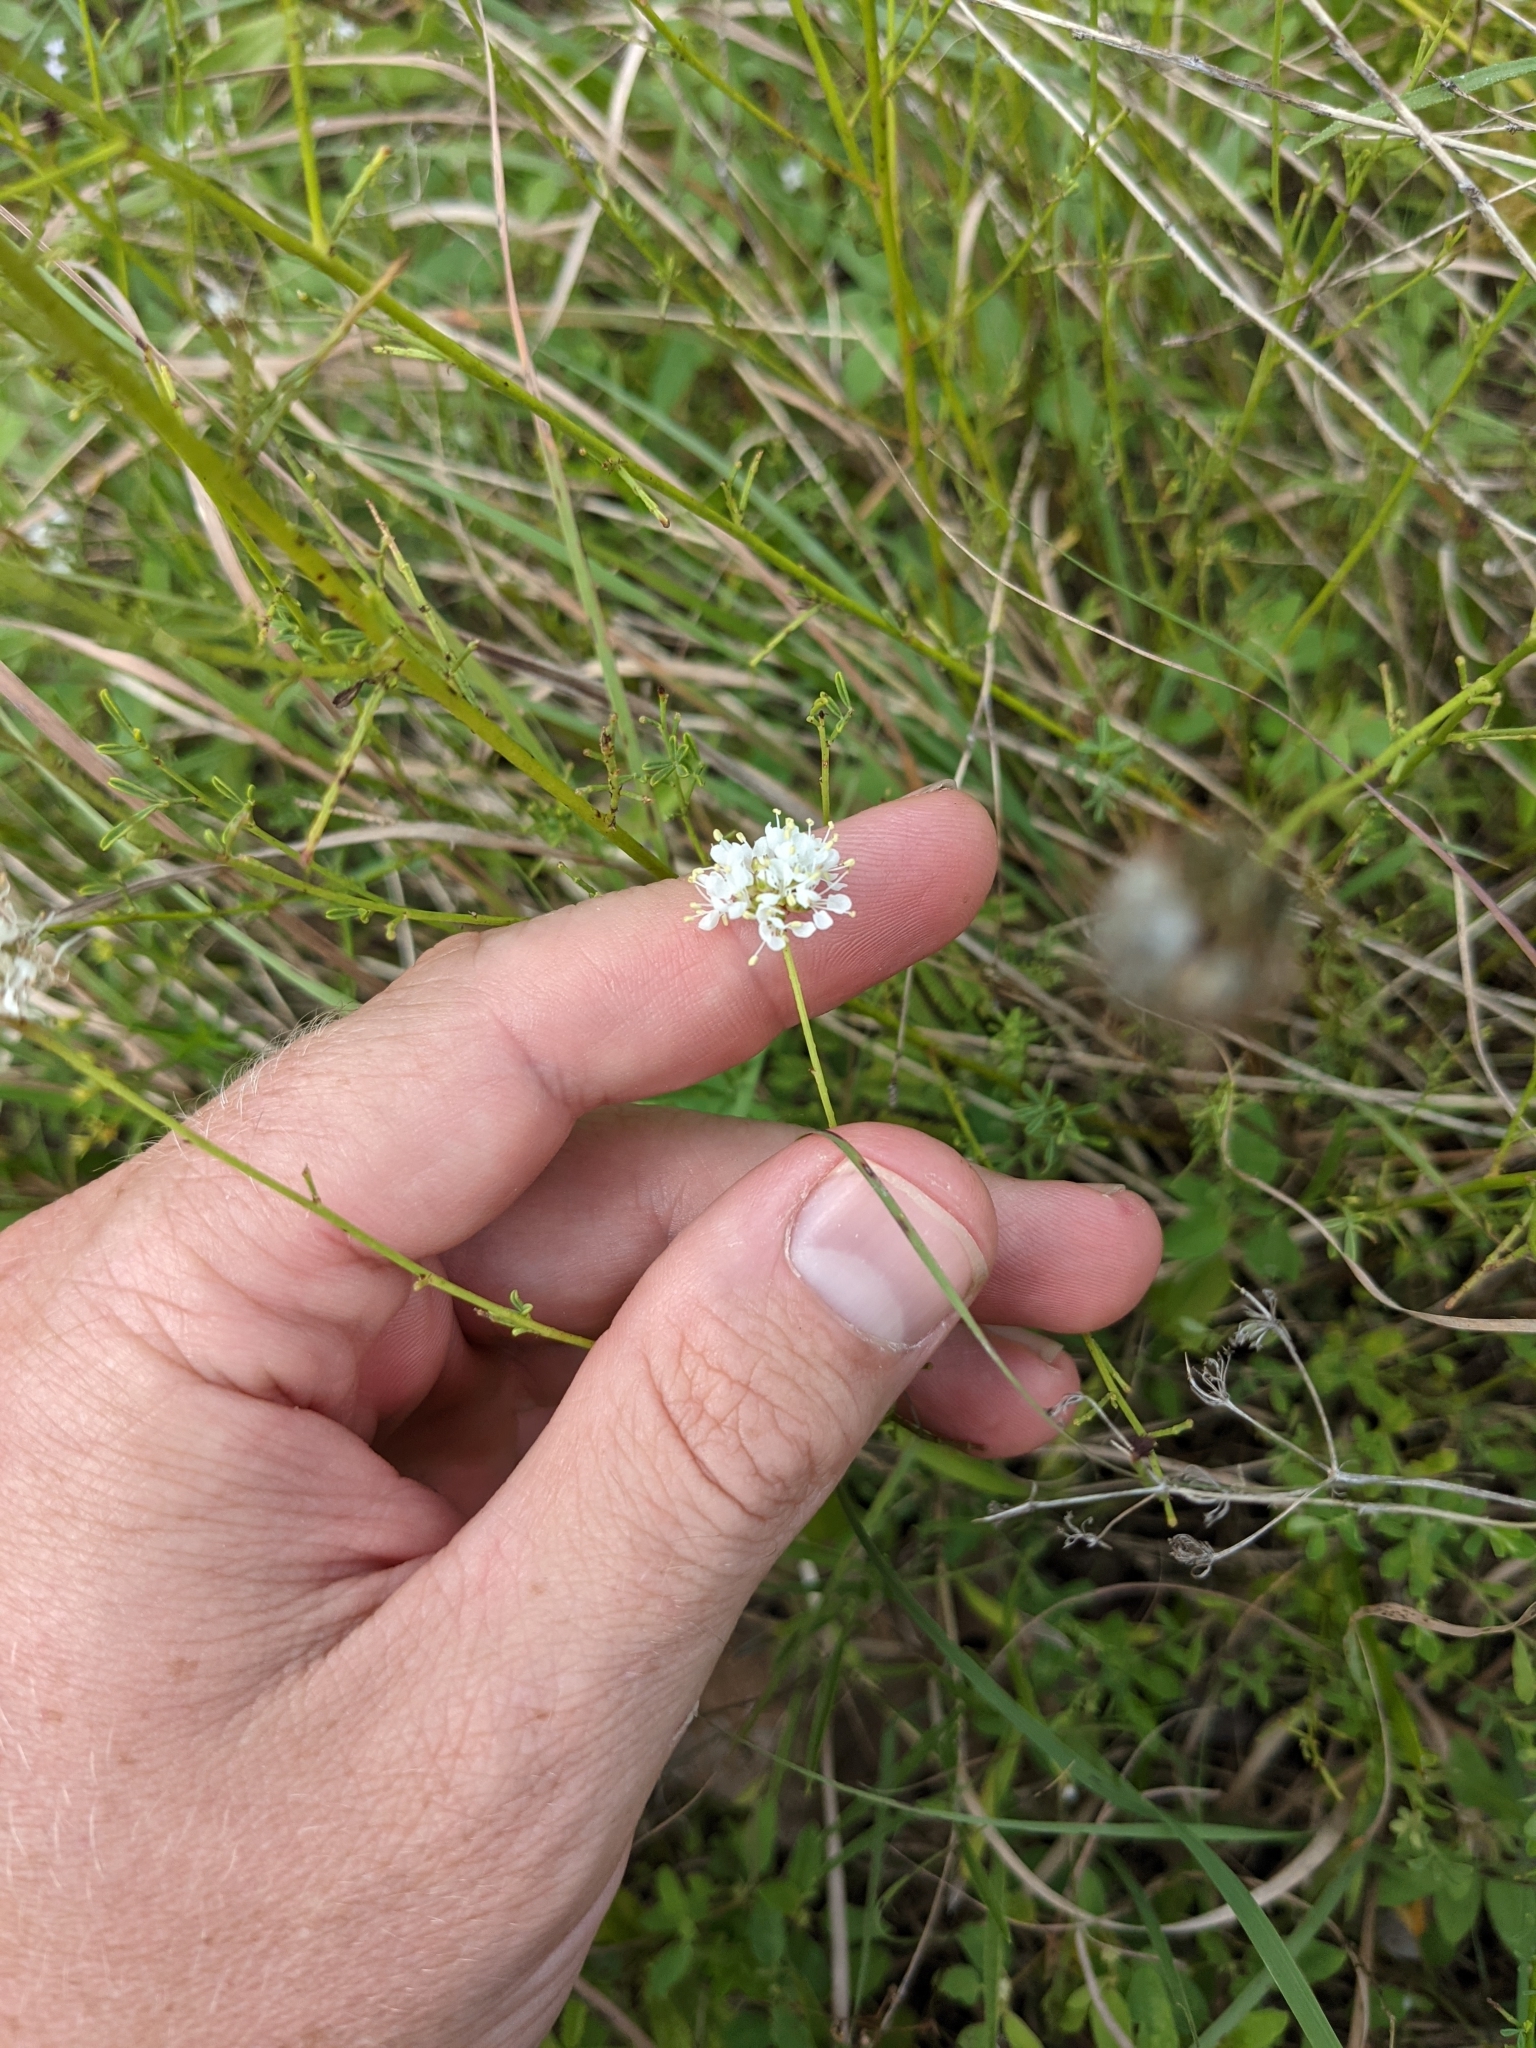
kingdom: Plantae
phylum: Tracheophyta
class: Magnoliopsida
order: Fabales
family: Fabaceae
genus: Dalea
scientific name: Dalea multiflora
